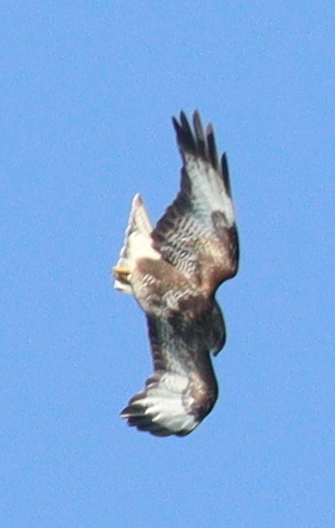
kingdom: Animalia
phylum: Chordata
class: Aves
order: Accipitriformes
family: Accipitridae
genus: Buteo
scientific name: Buteo buteo
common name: Common buzzard
